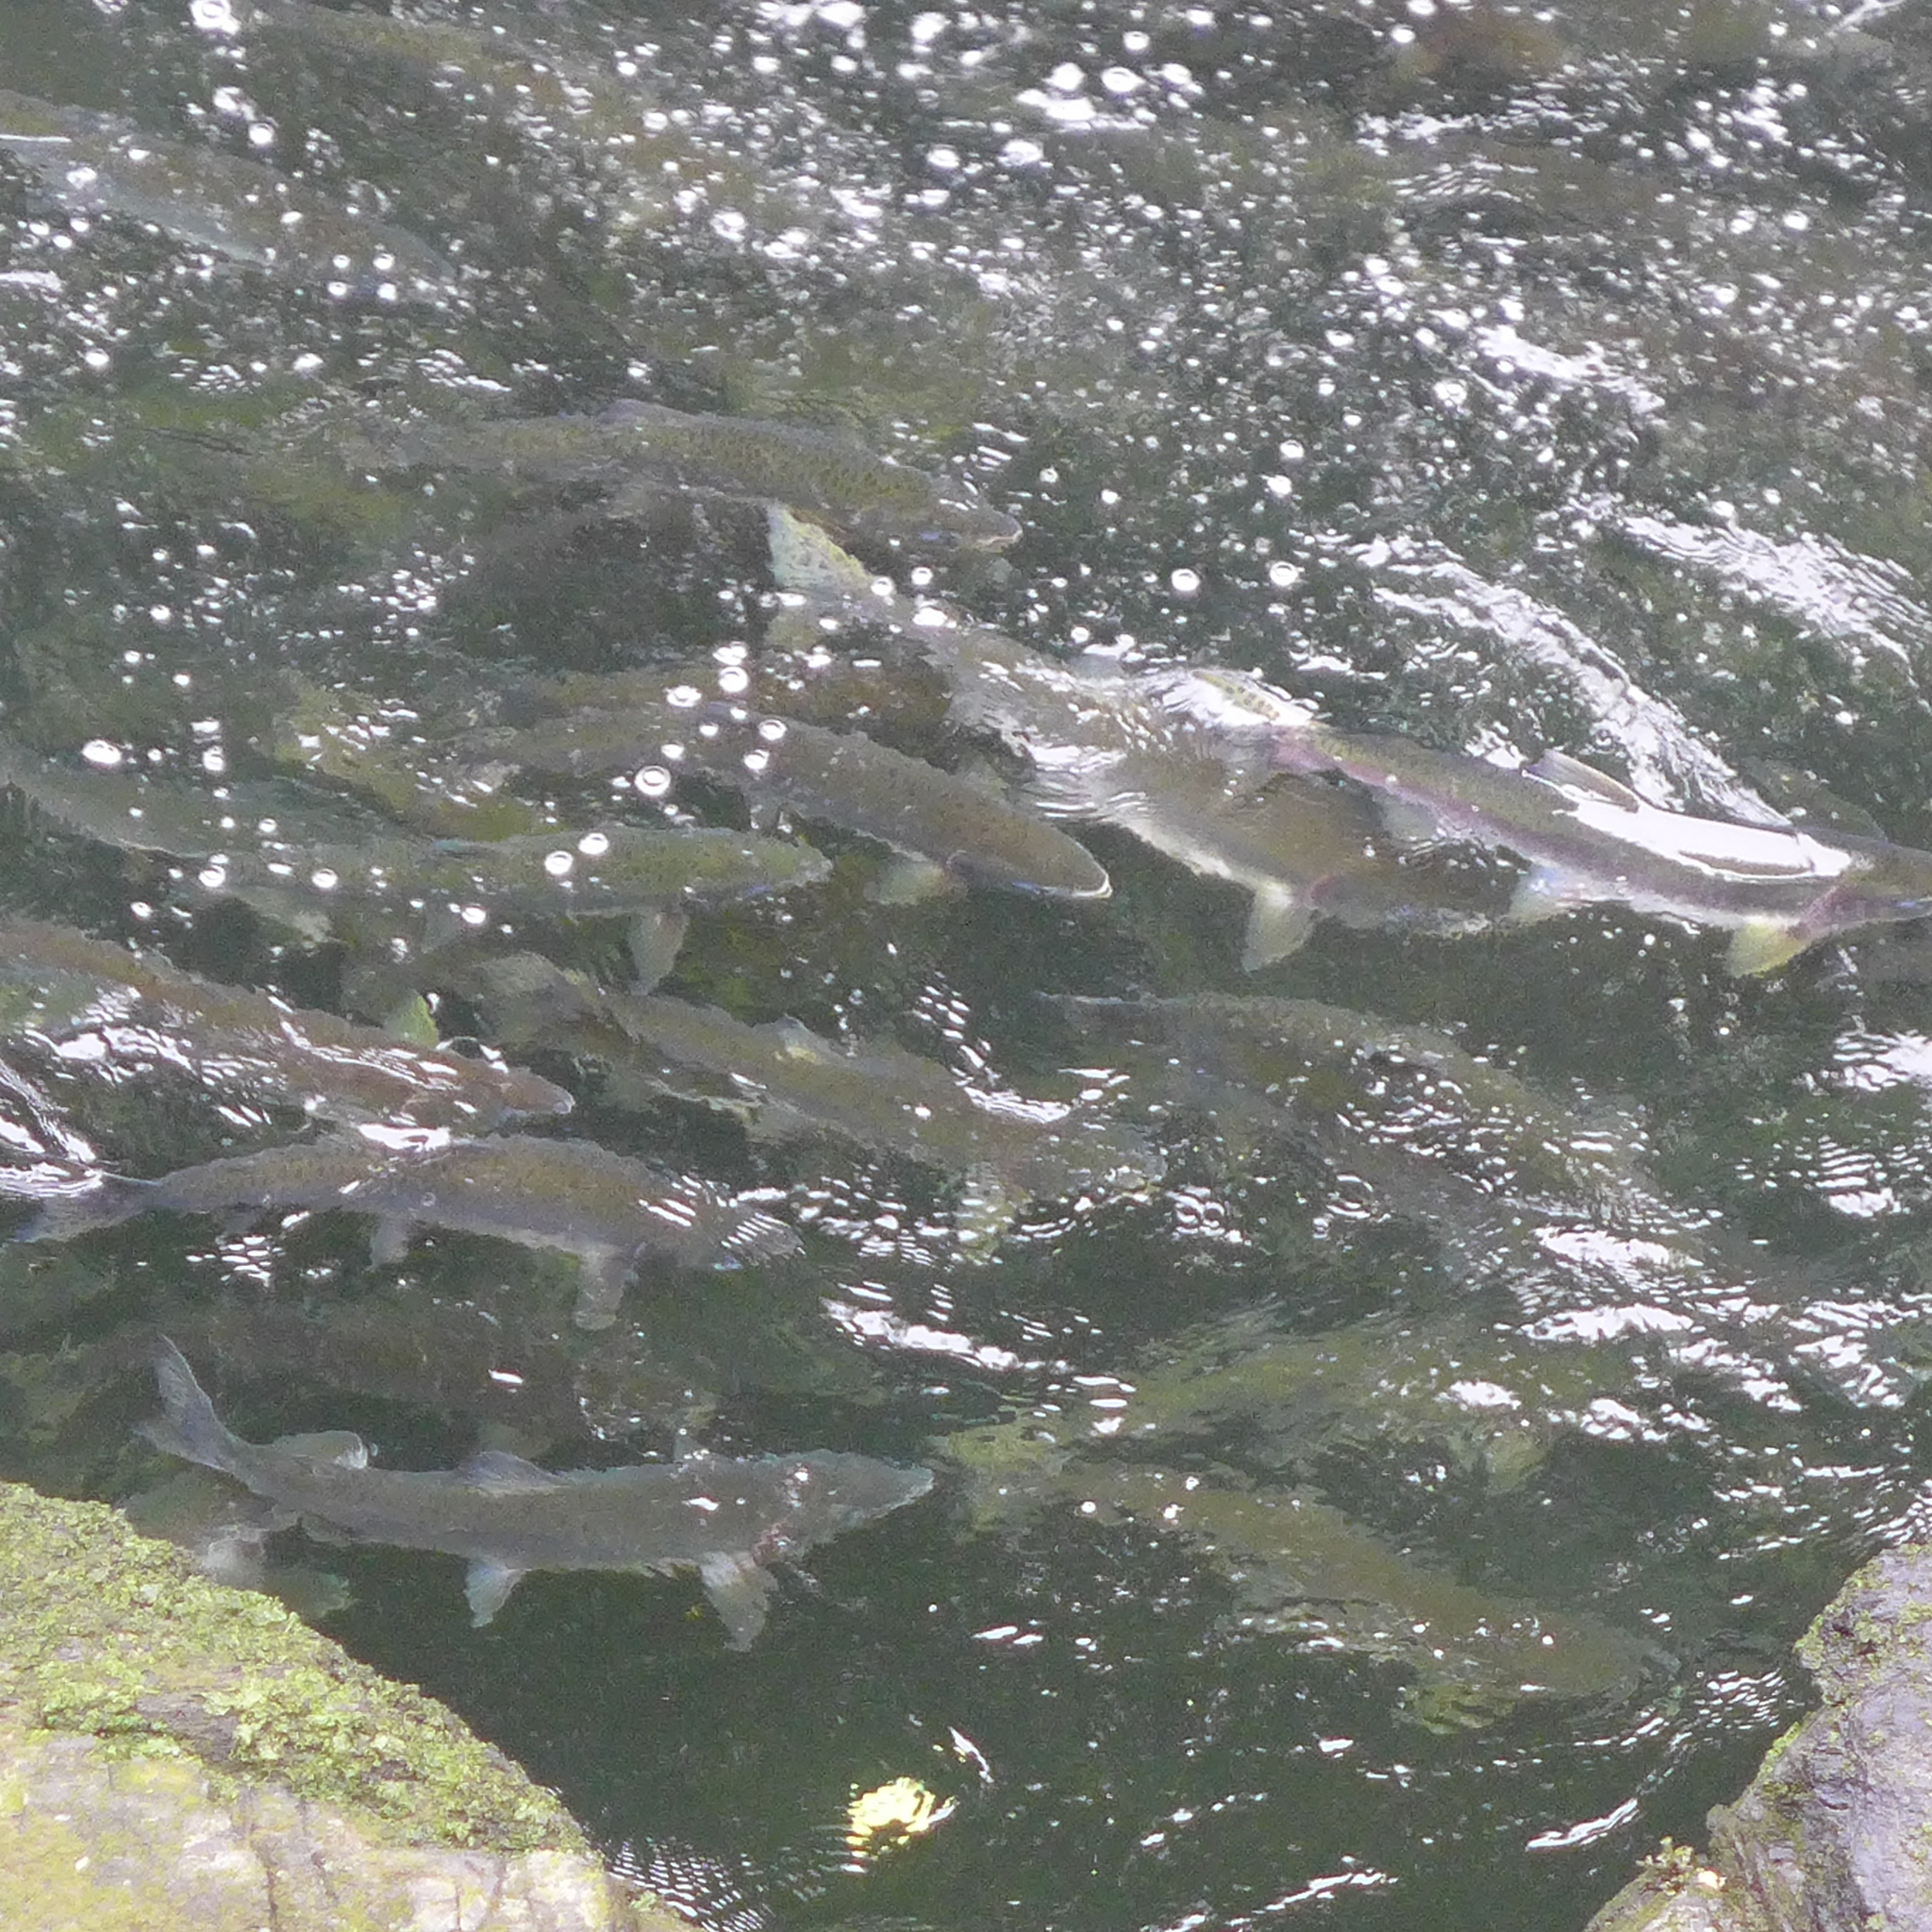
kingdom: Animalia
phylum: Chordata
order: Salmoniformes
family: Salmonidae
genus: Oncorhynchus
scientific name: Oncorhynchus gorbuscha
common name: Humpback salmon
